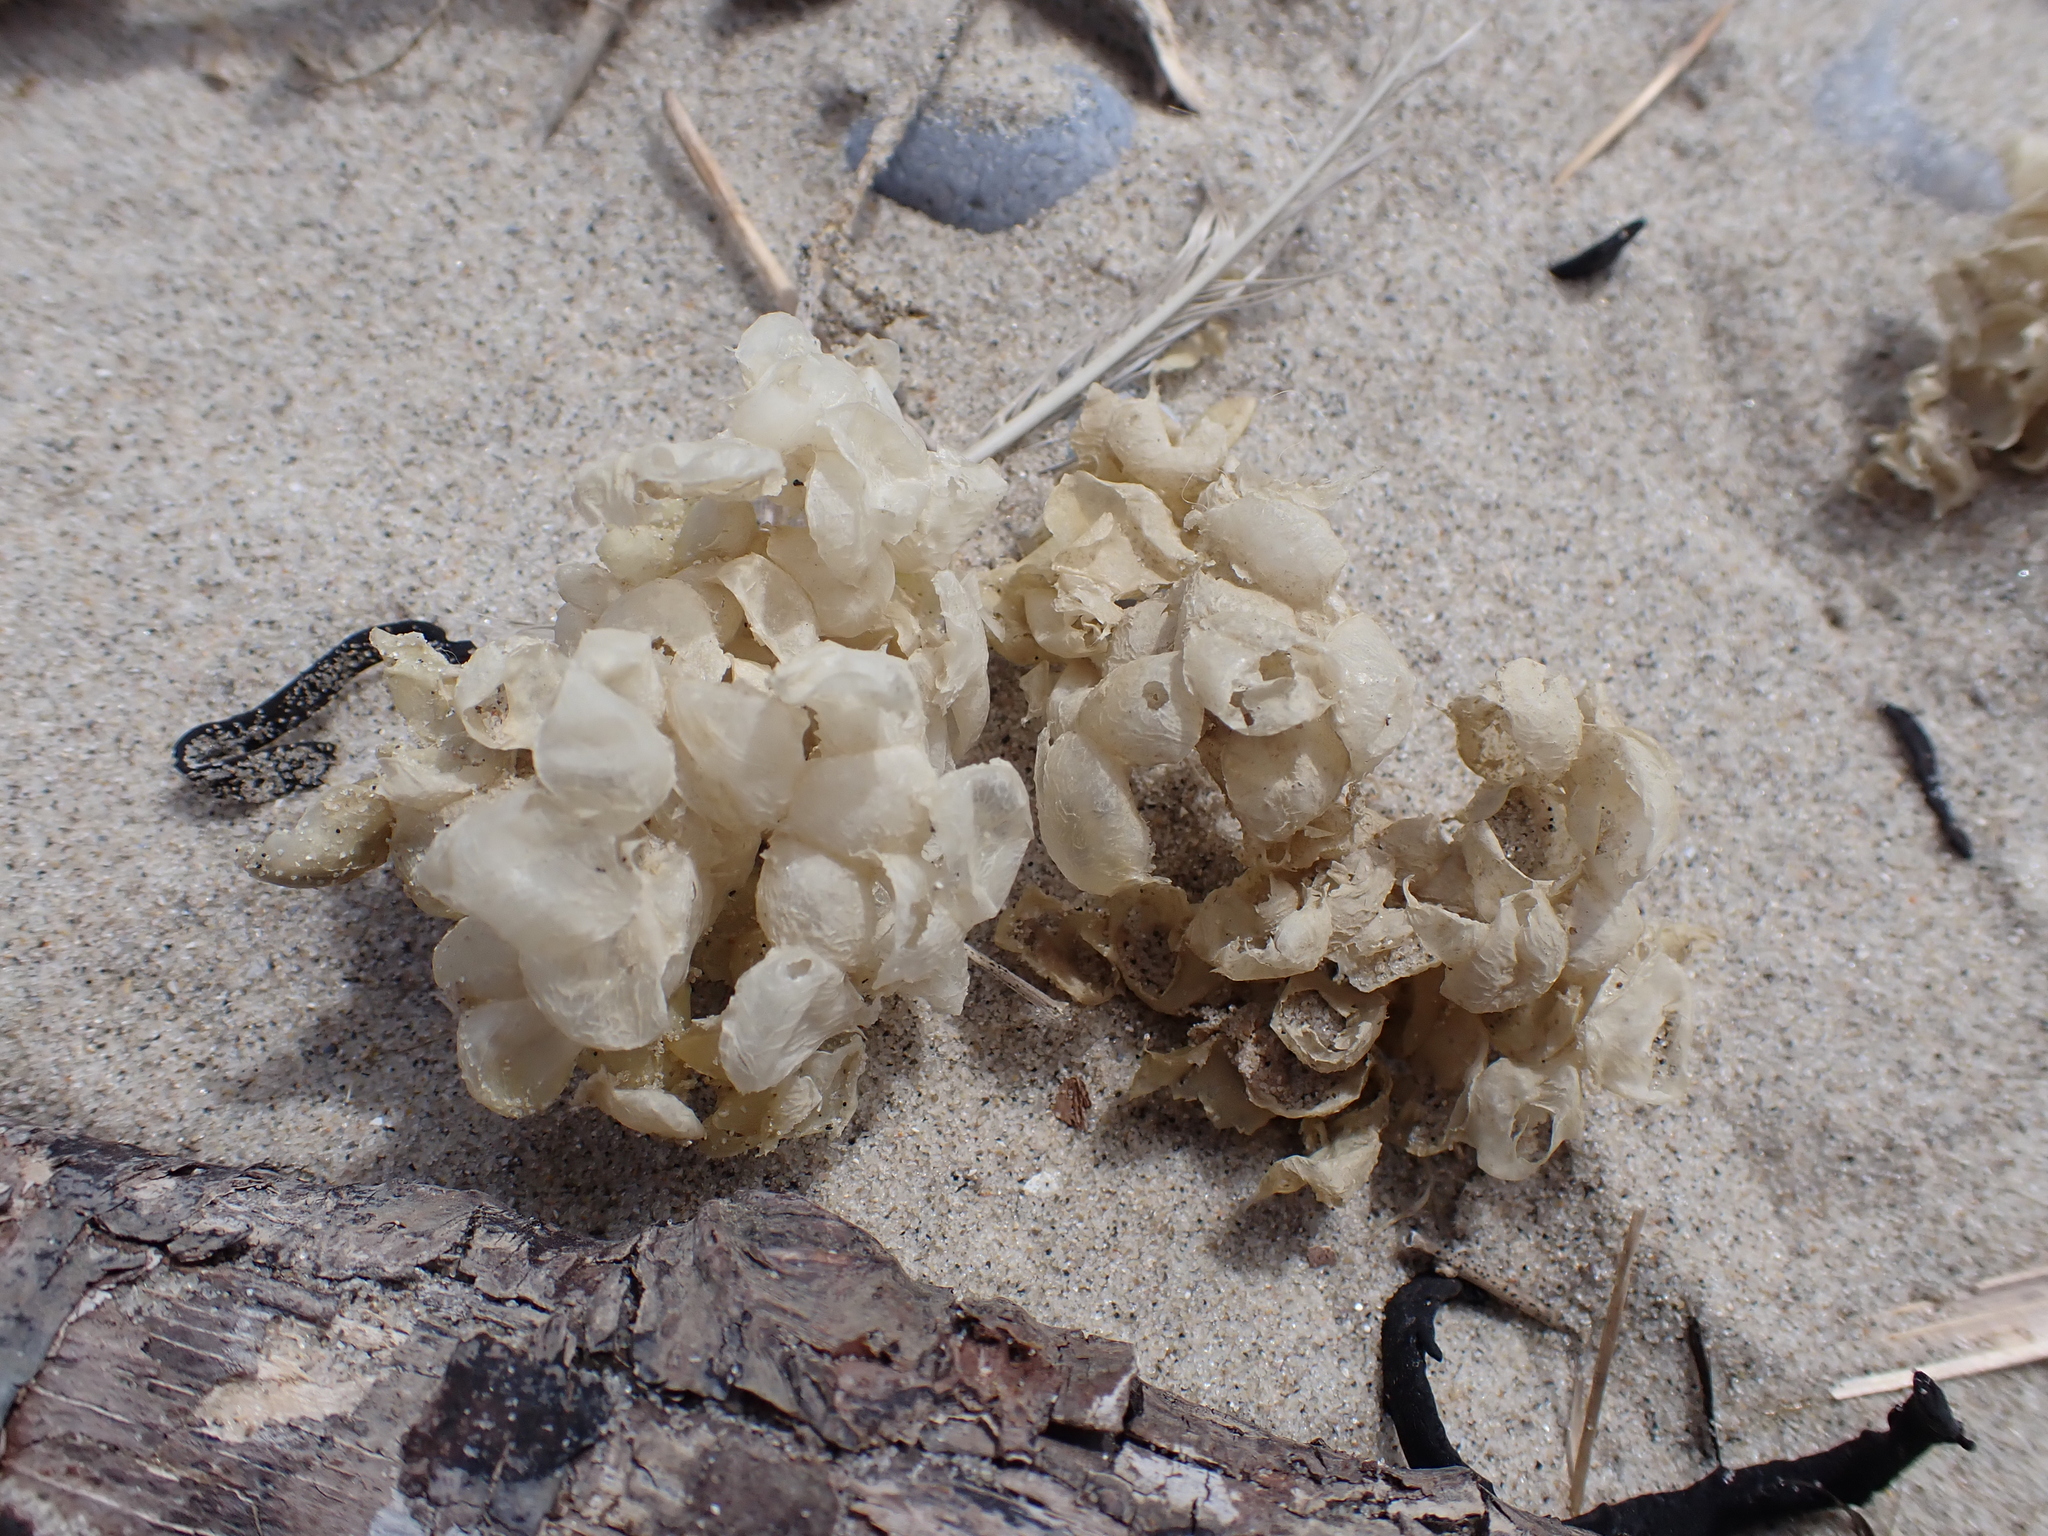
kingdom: Animalia
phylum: Mollusca
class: Gastropoda
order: Neogastropoda
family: Buccinidae
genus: Buccinum
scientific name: Buccinum undatum
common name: Common whelk
